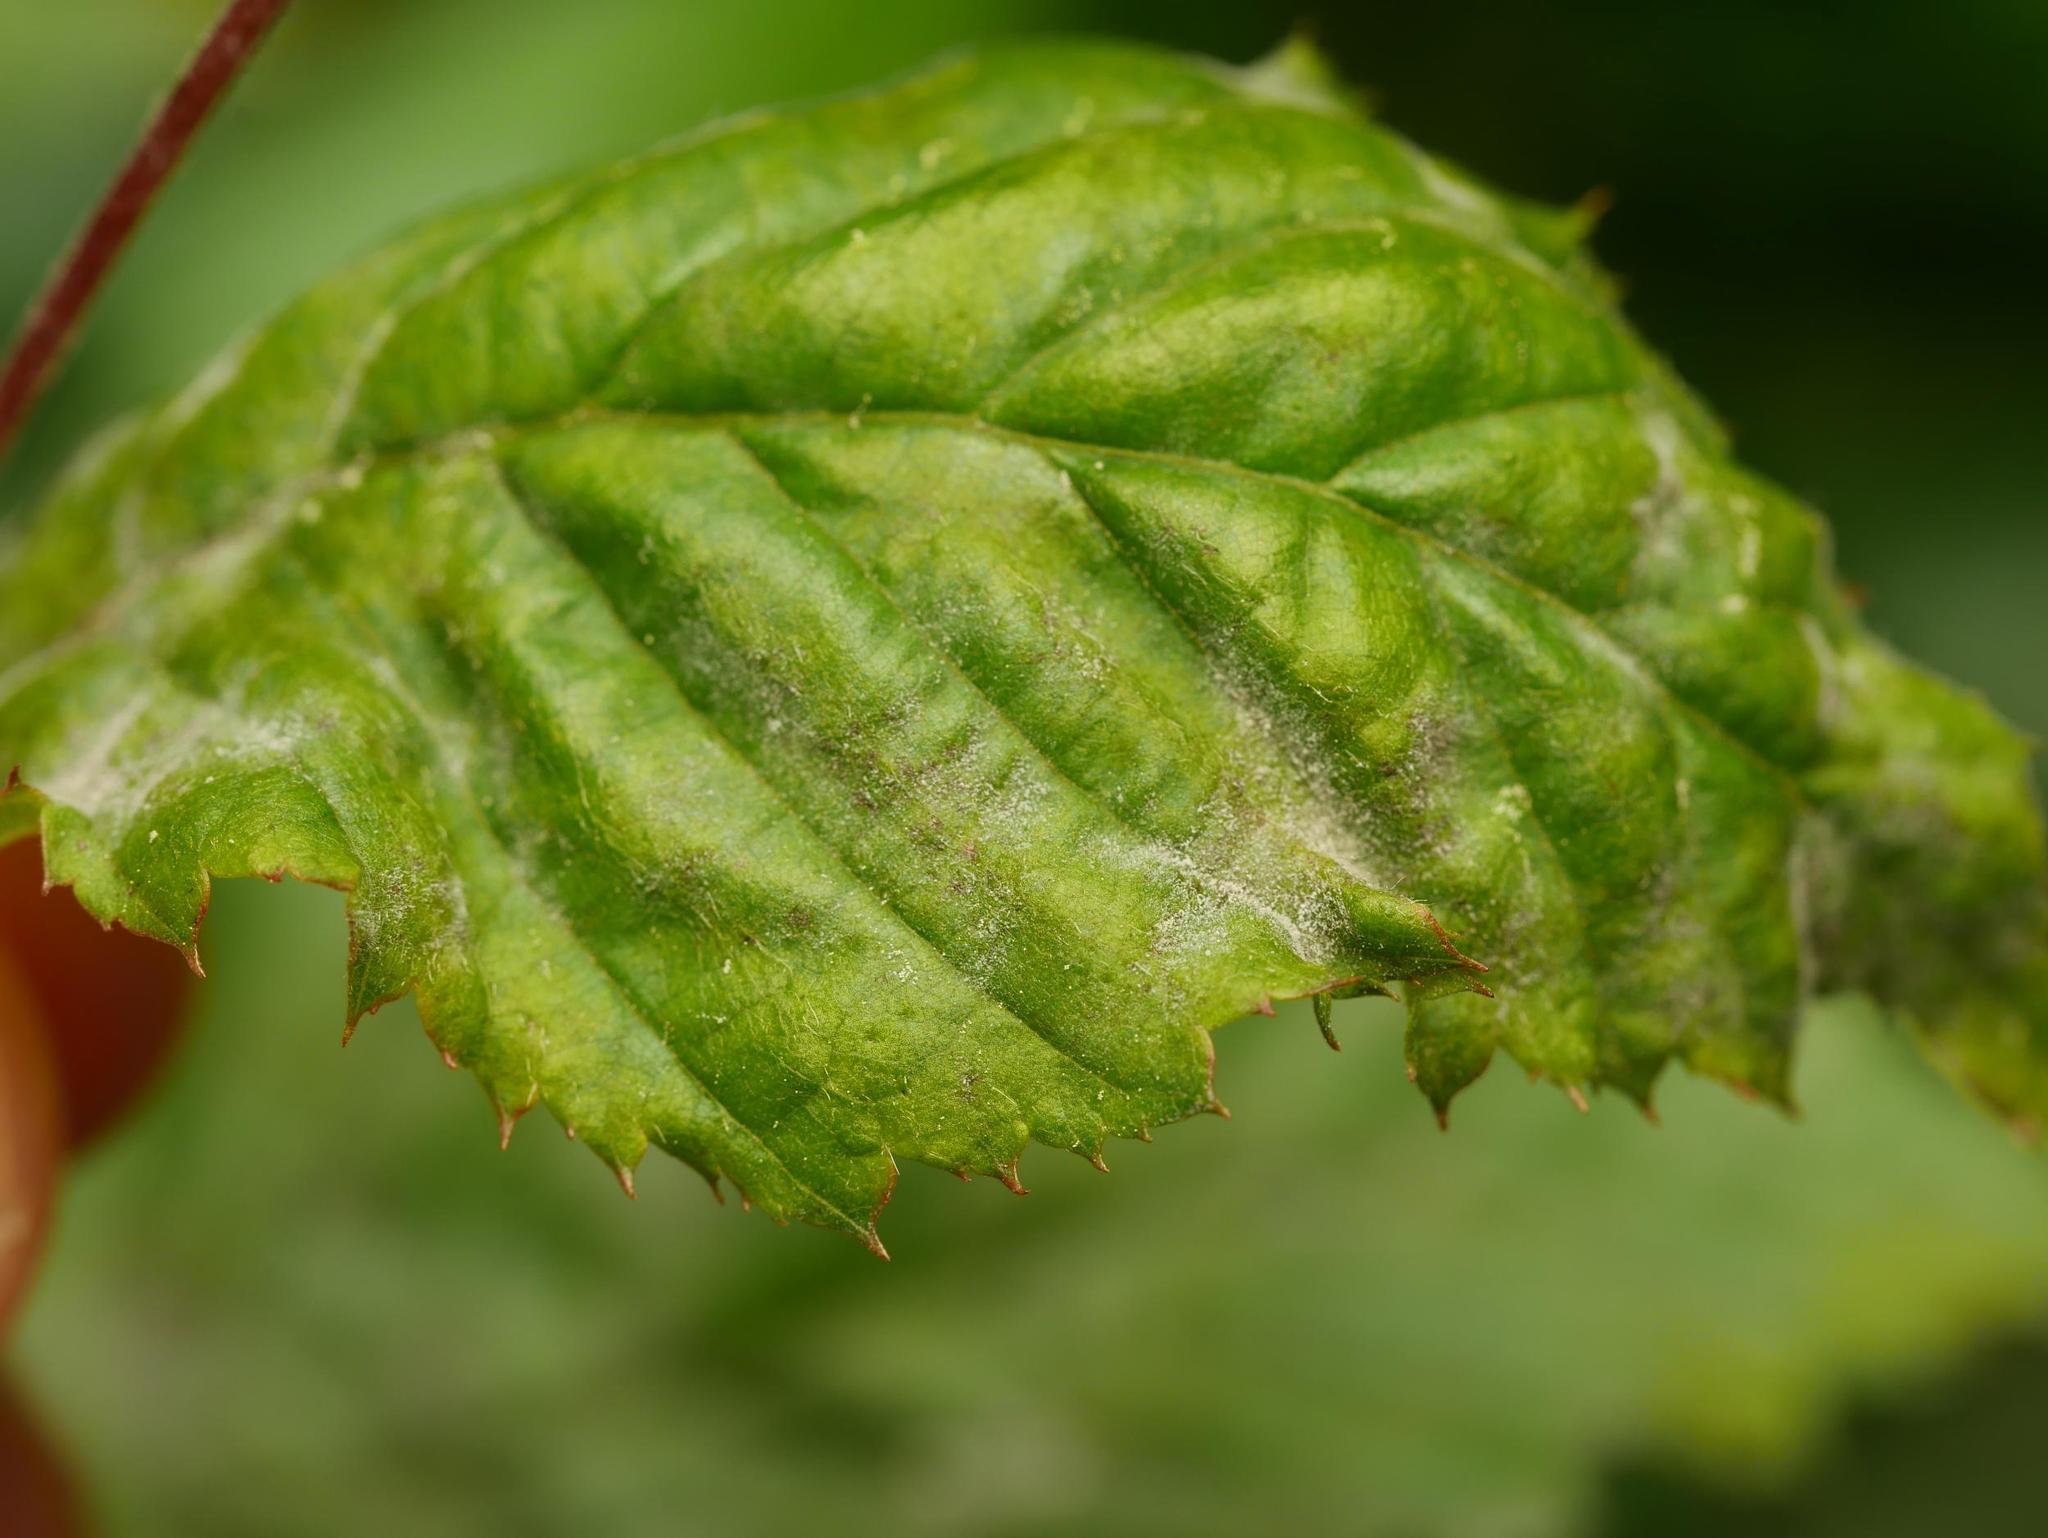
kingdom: Fungi
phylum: Ascomycota
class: Leotiomycetes
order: Helotiales
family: Erysiphaceae
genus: Erysiphe
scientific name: Erysiphe arcuata
